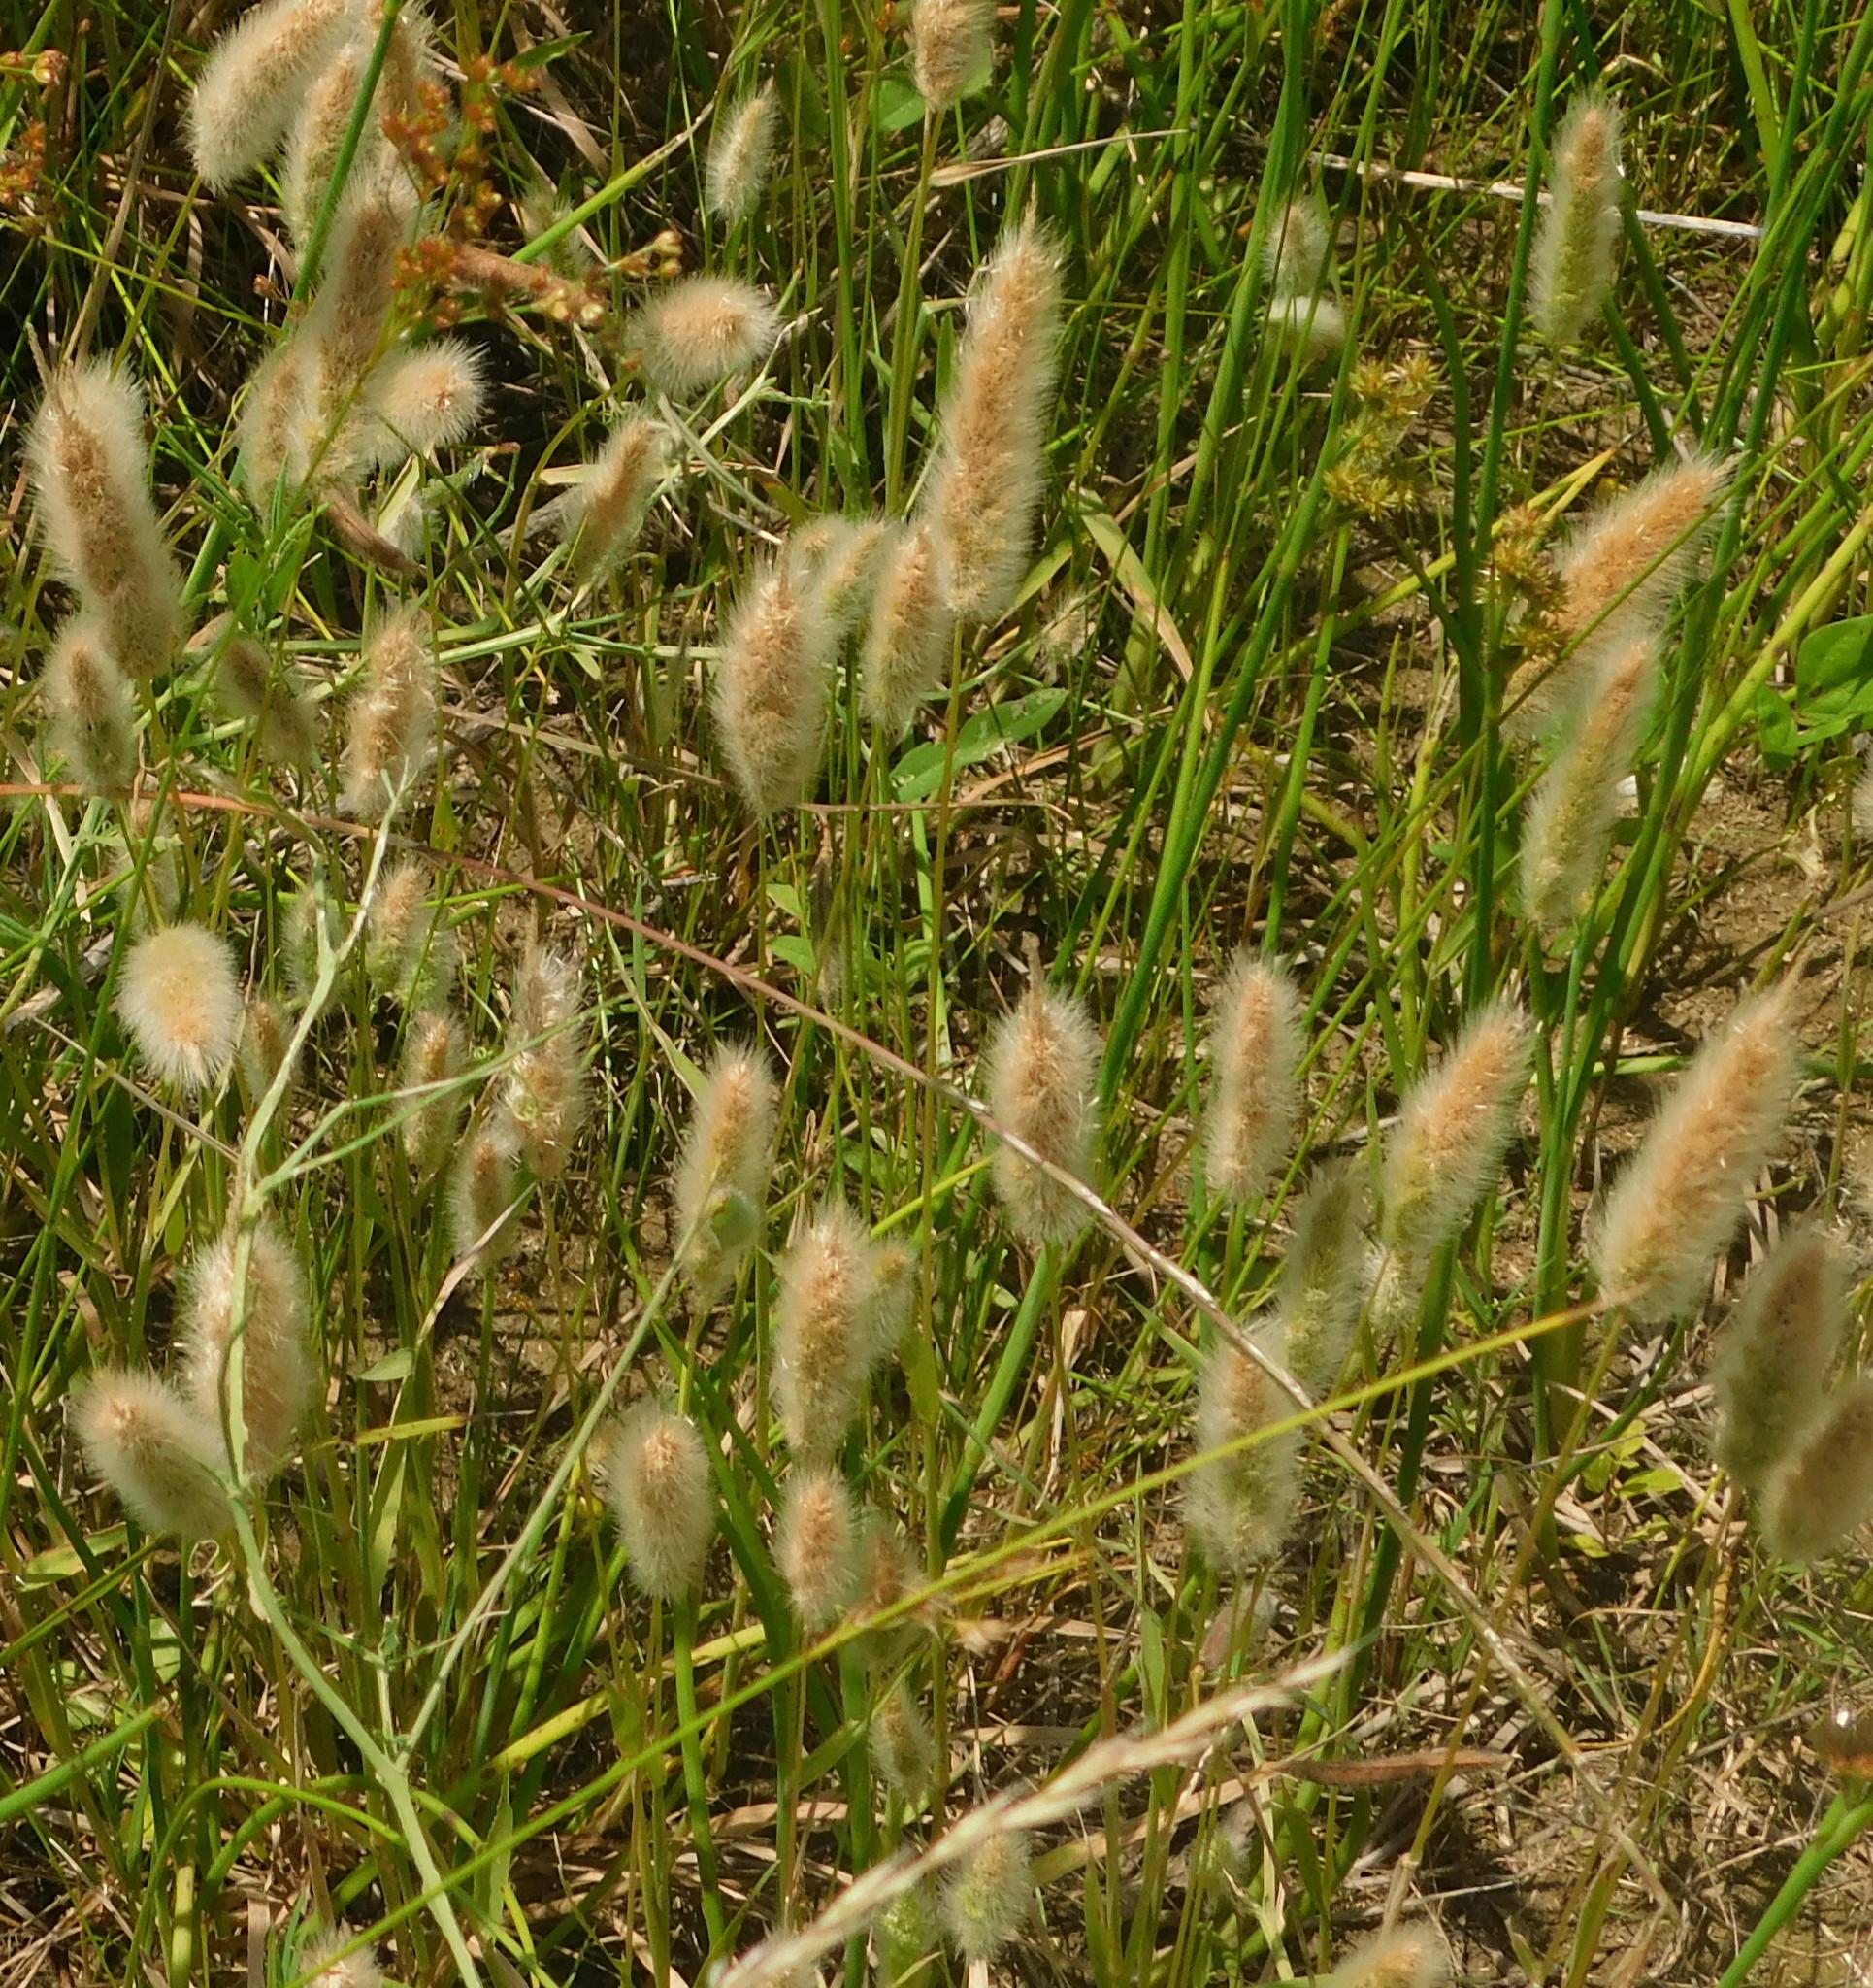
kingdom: Plantae
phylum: Tracheophyta
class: Liliopsida
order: Poales
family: Poaceae
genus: Polypogon
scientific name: Polypogon monspeliensis
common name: Annual rabbitsfoot grass
